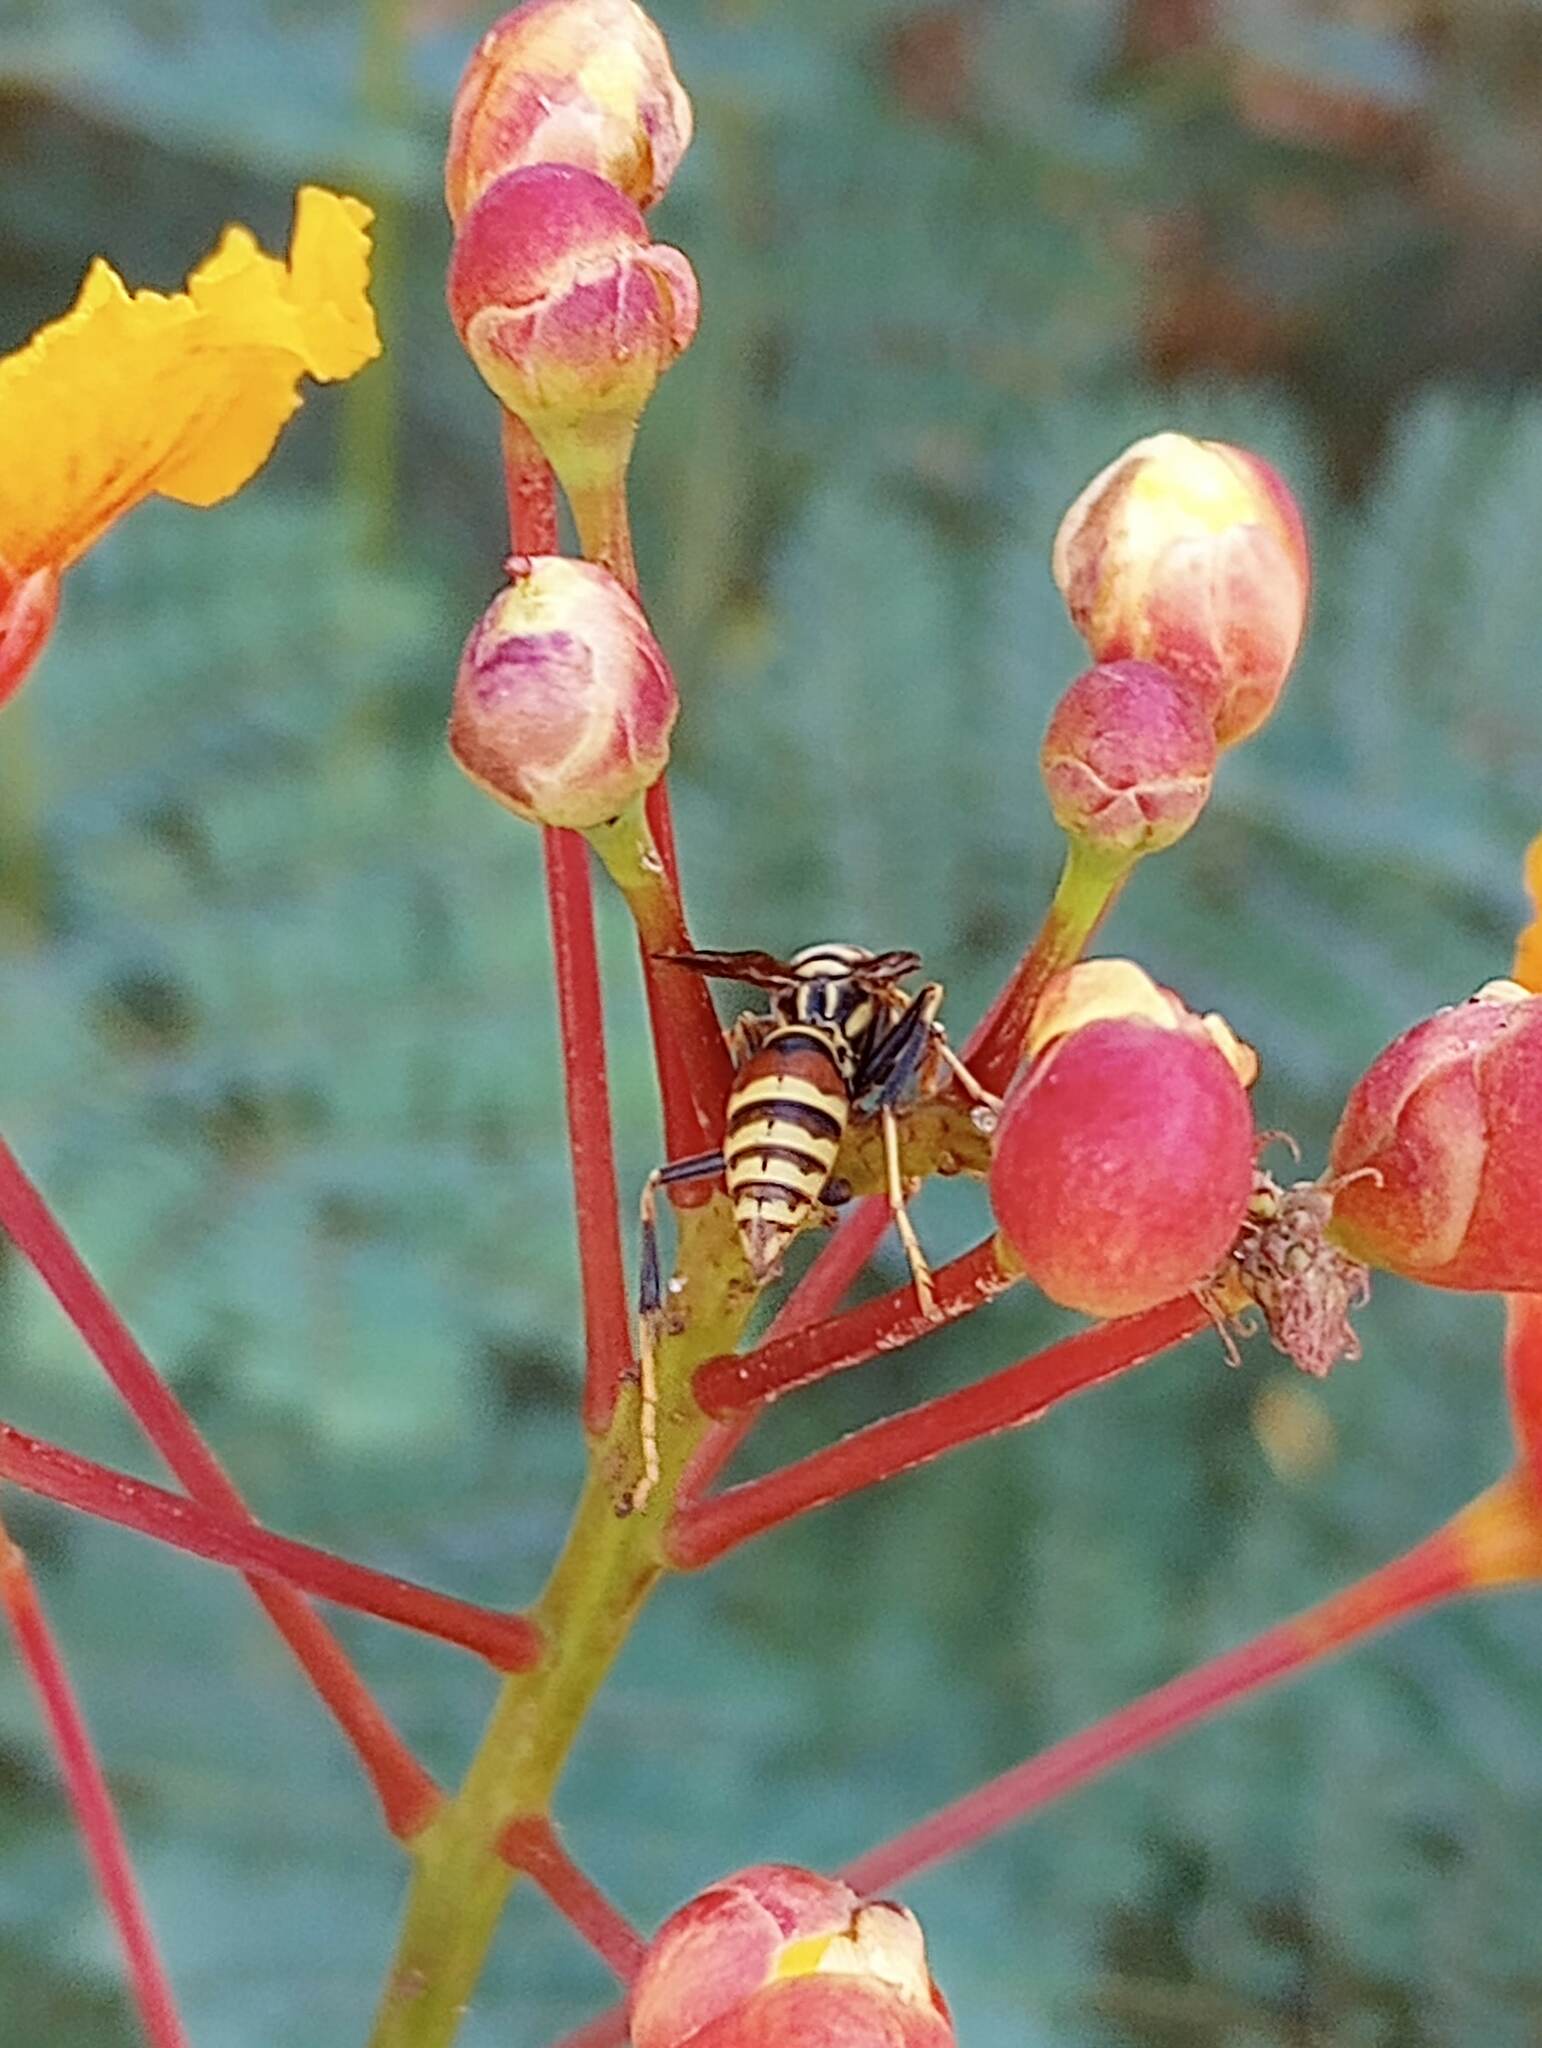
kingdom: Animalia
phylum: Arthropoda
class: Insecta
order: Hymenoptera
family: Eumenidae
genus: Polistes
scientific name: Polistes exclamans
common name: Paper wasp
